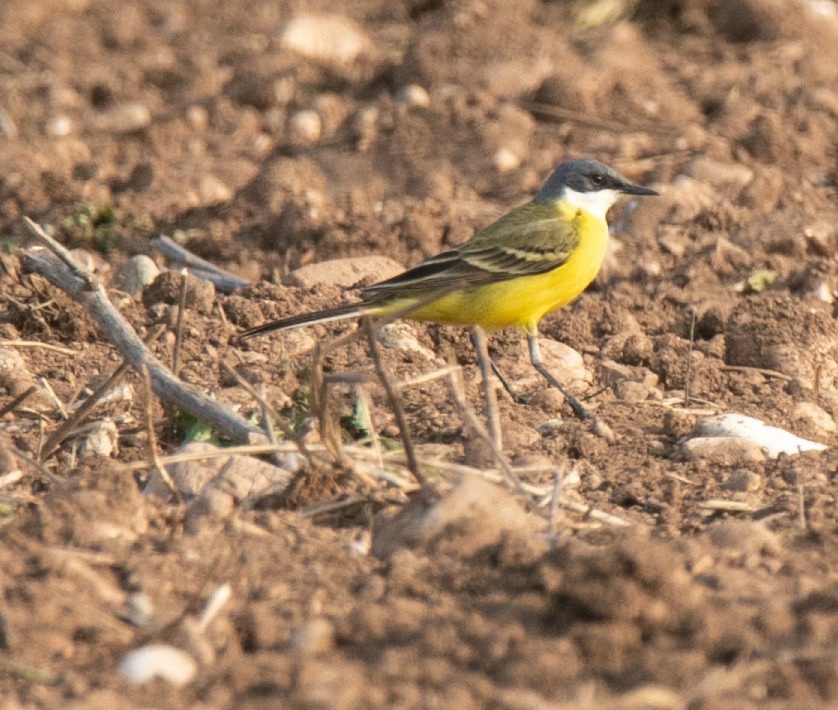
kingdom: Animalia
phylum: Chordata
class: Aves
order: Passeriformes
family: Motacillidae
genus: Motacilla
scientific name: Motacilla flava
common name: Western yellow wagtail
